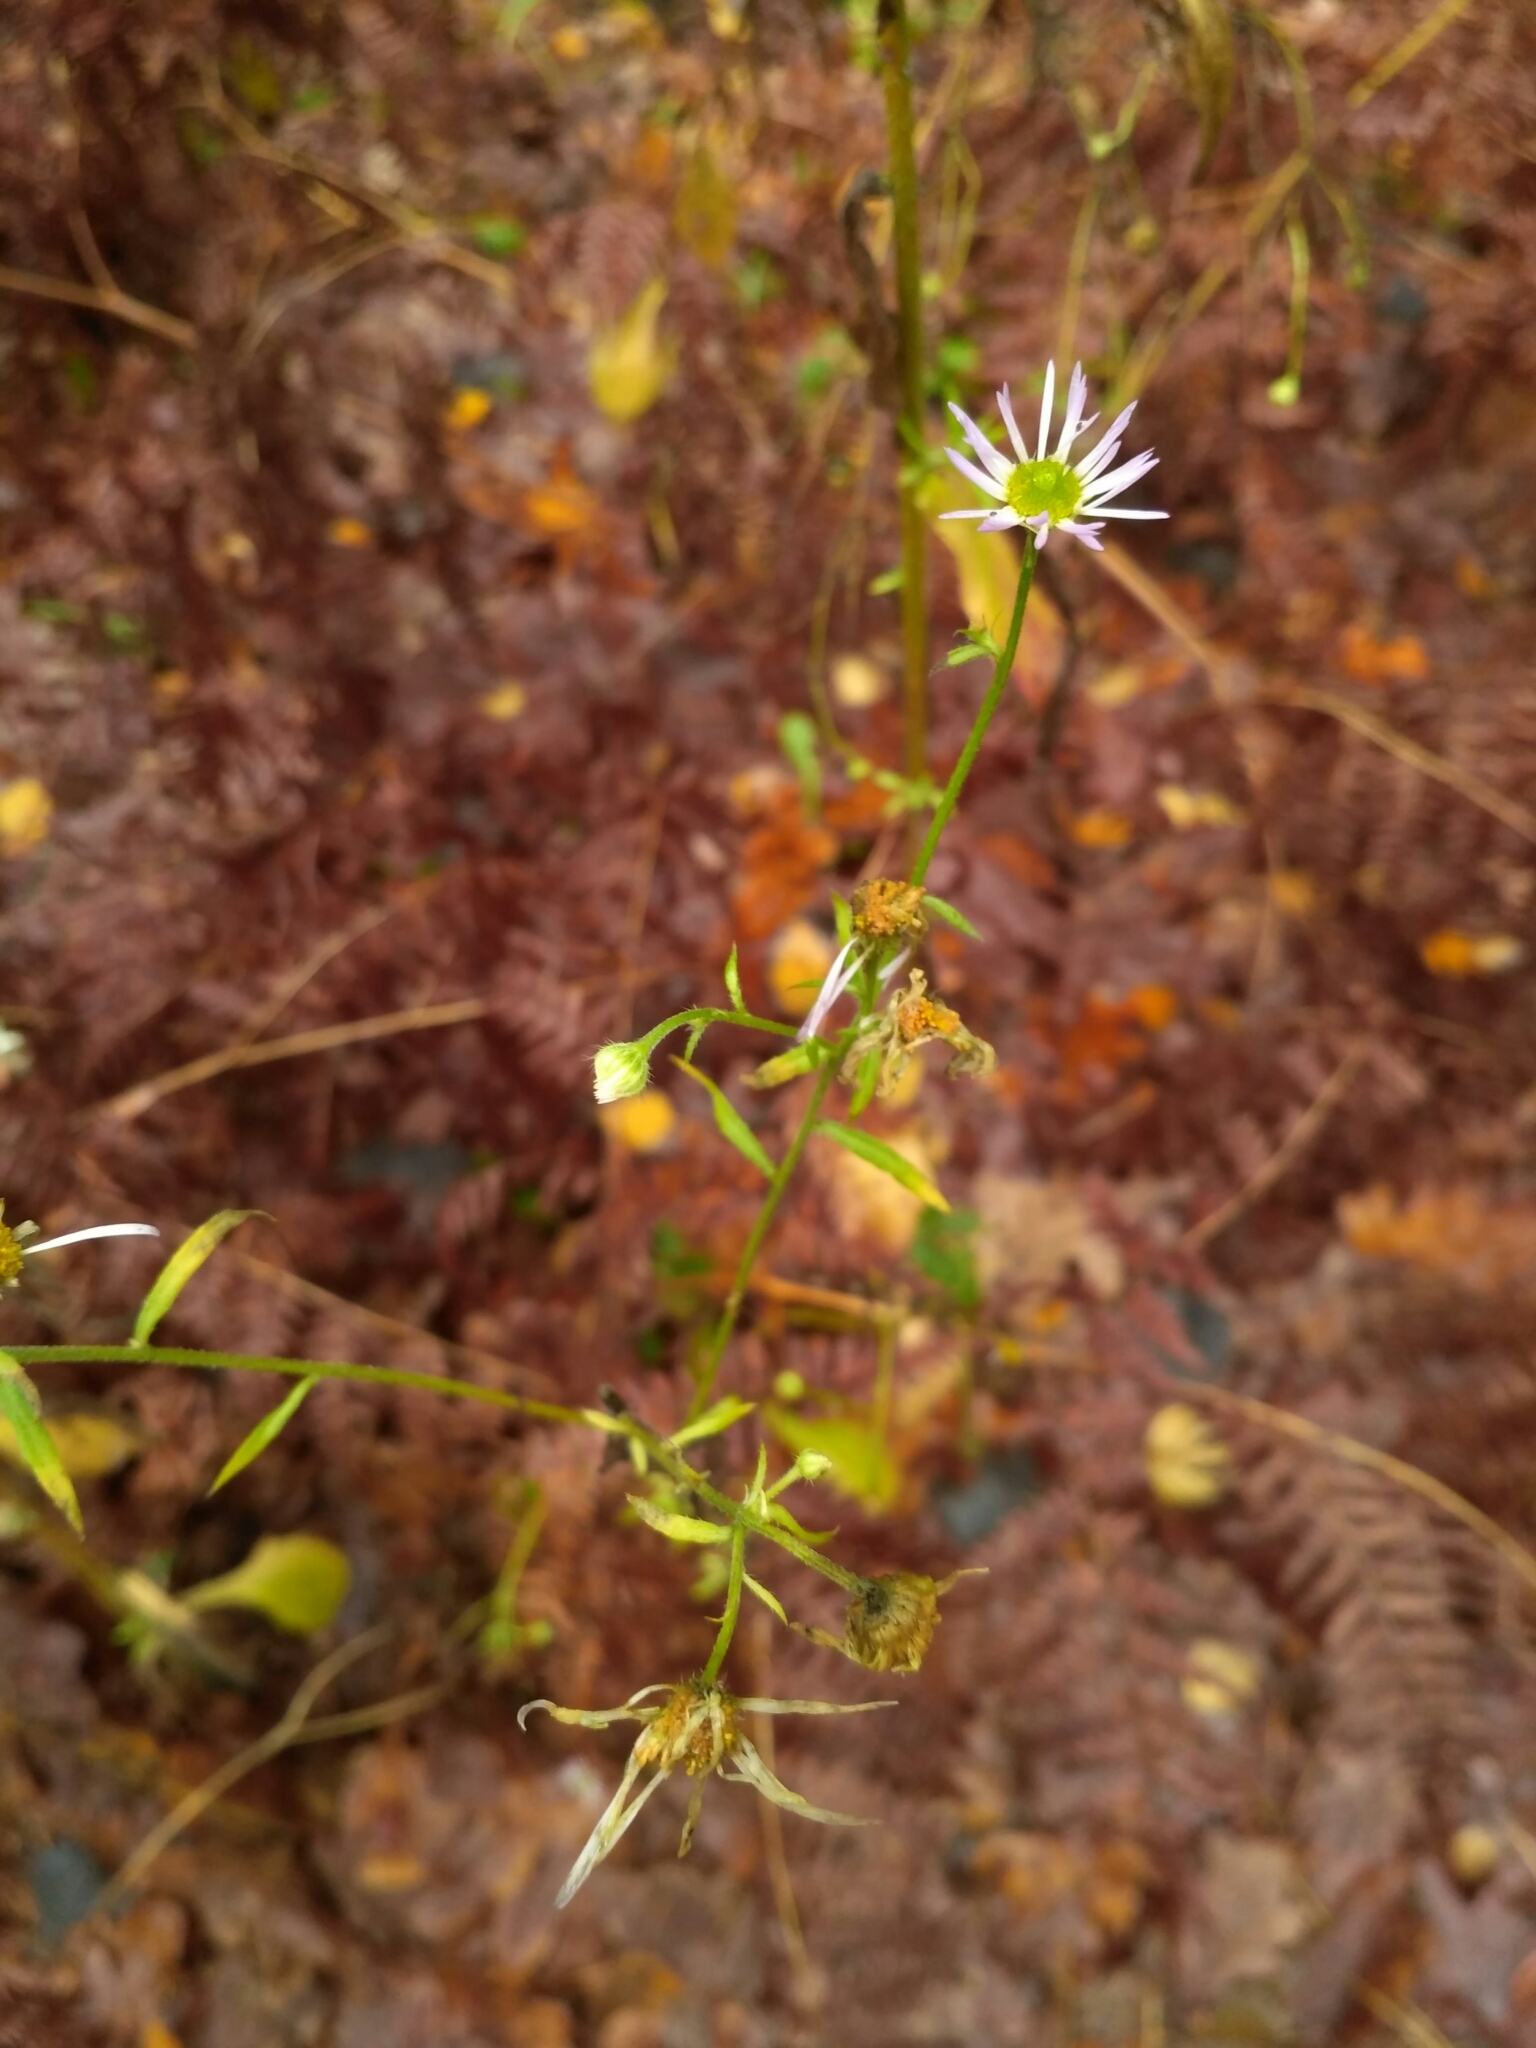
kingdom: Plantae
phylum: Tracheophyta
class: Magnoliopsida
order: Asterales
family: Asteraceae
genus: Erigeron
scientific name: Erigeron annuus
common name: Tall fleabane
